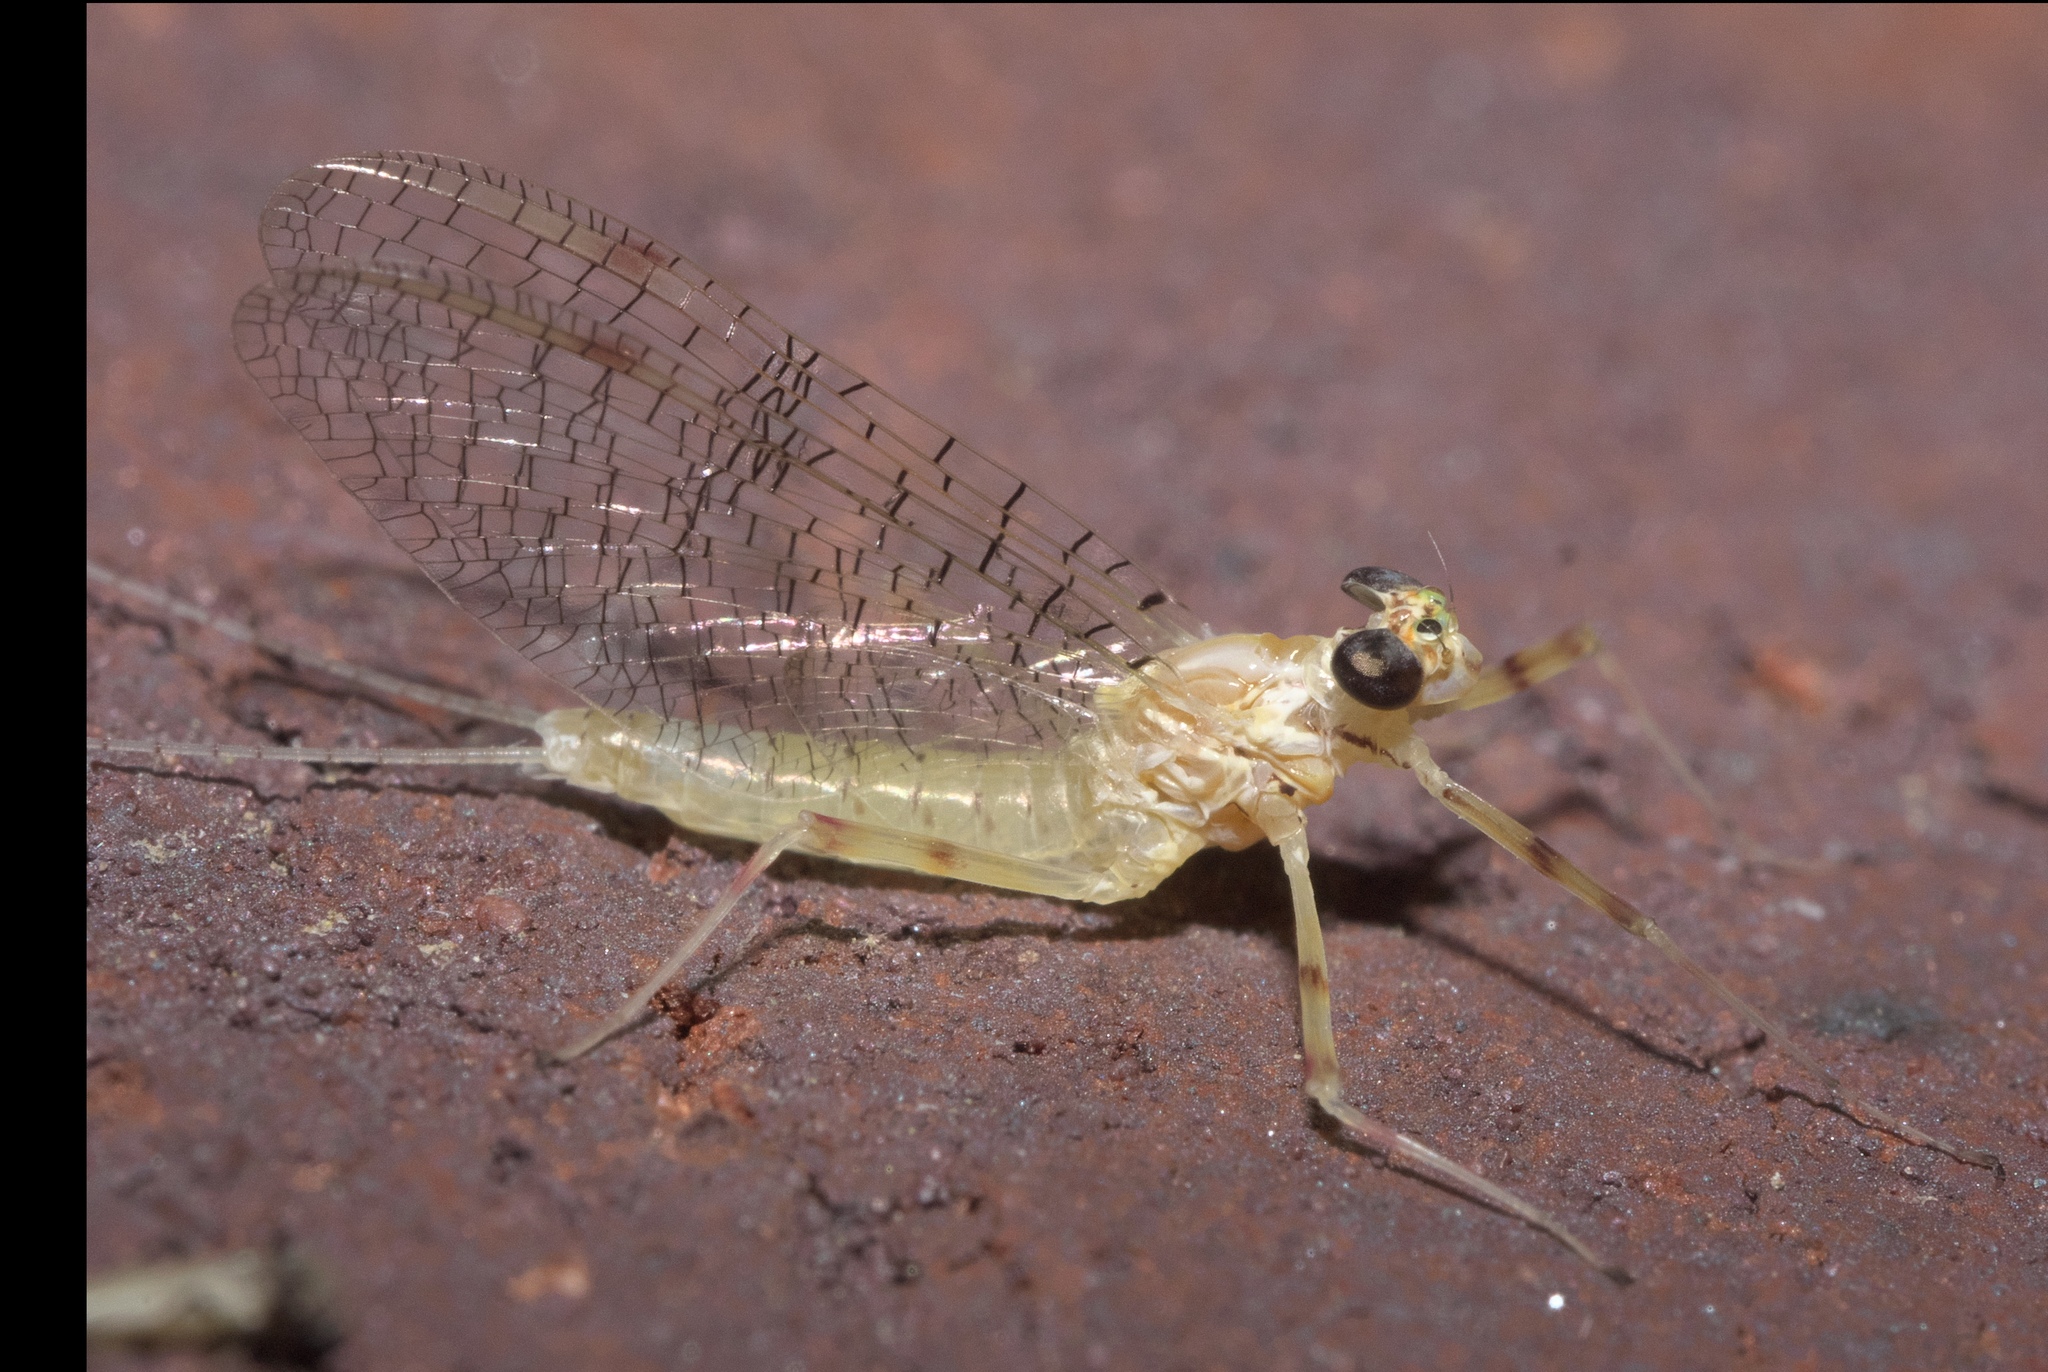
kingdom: Animalia
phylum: Arthropoda
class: Insecta
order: Ephemeroptera
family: Heptageniidae
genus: Stenonema
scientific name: Stenonema femoratum
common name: Dark cahill
